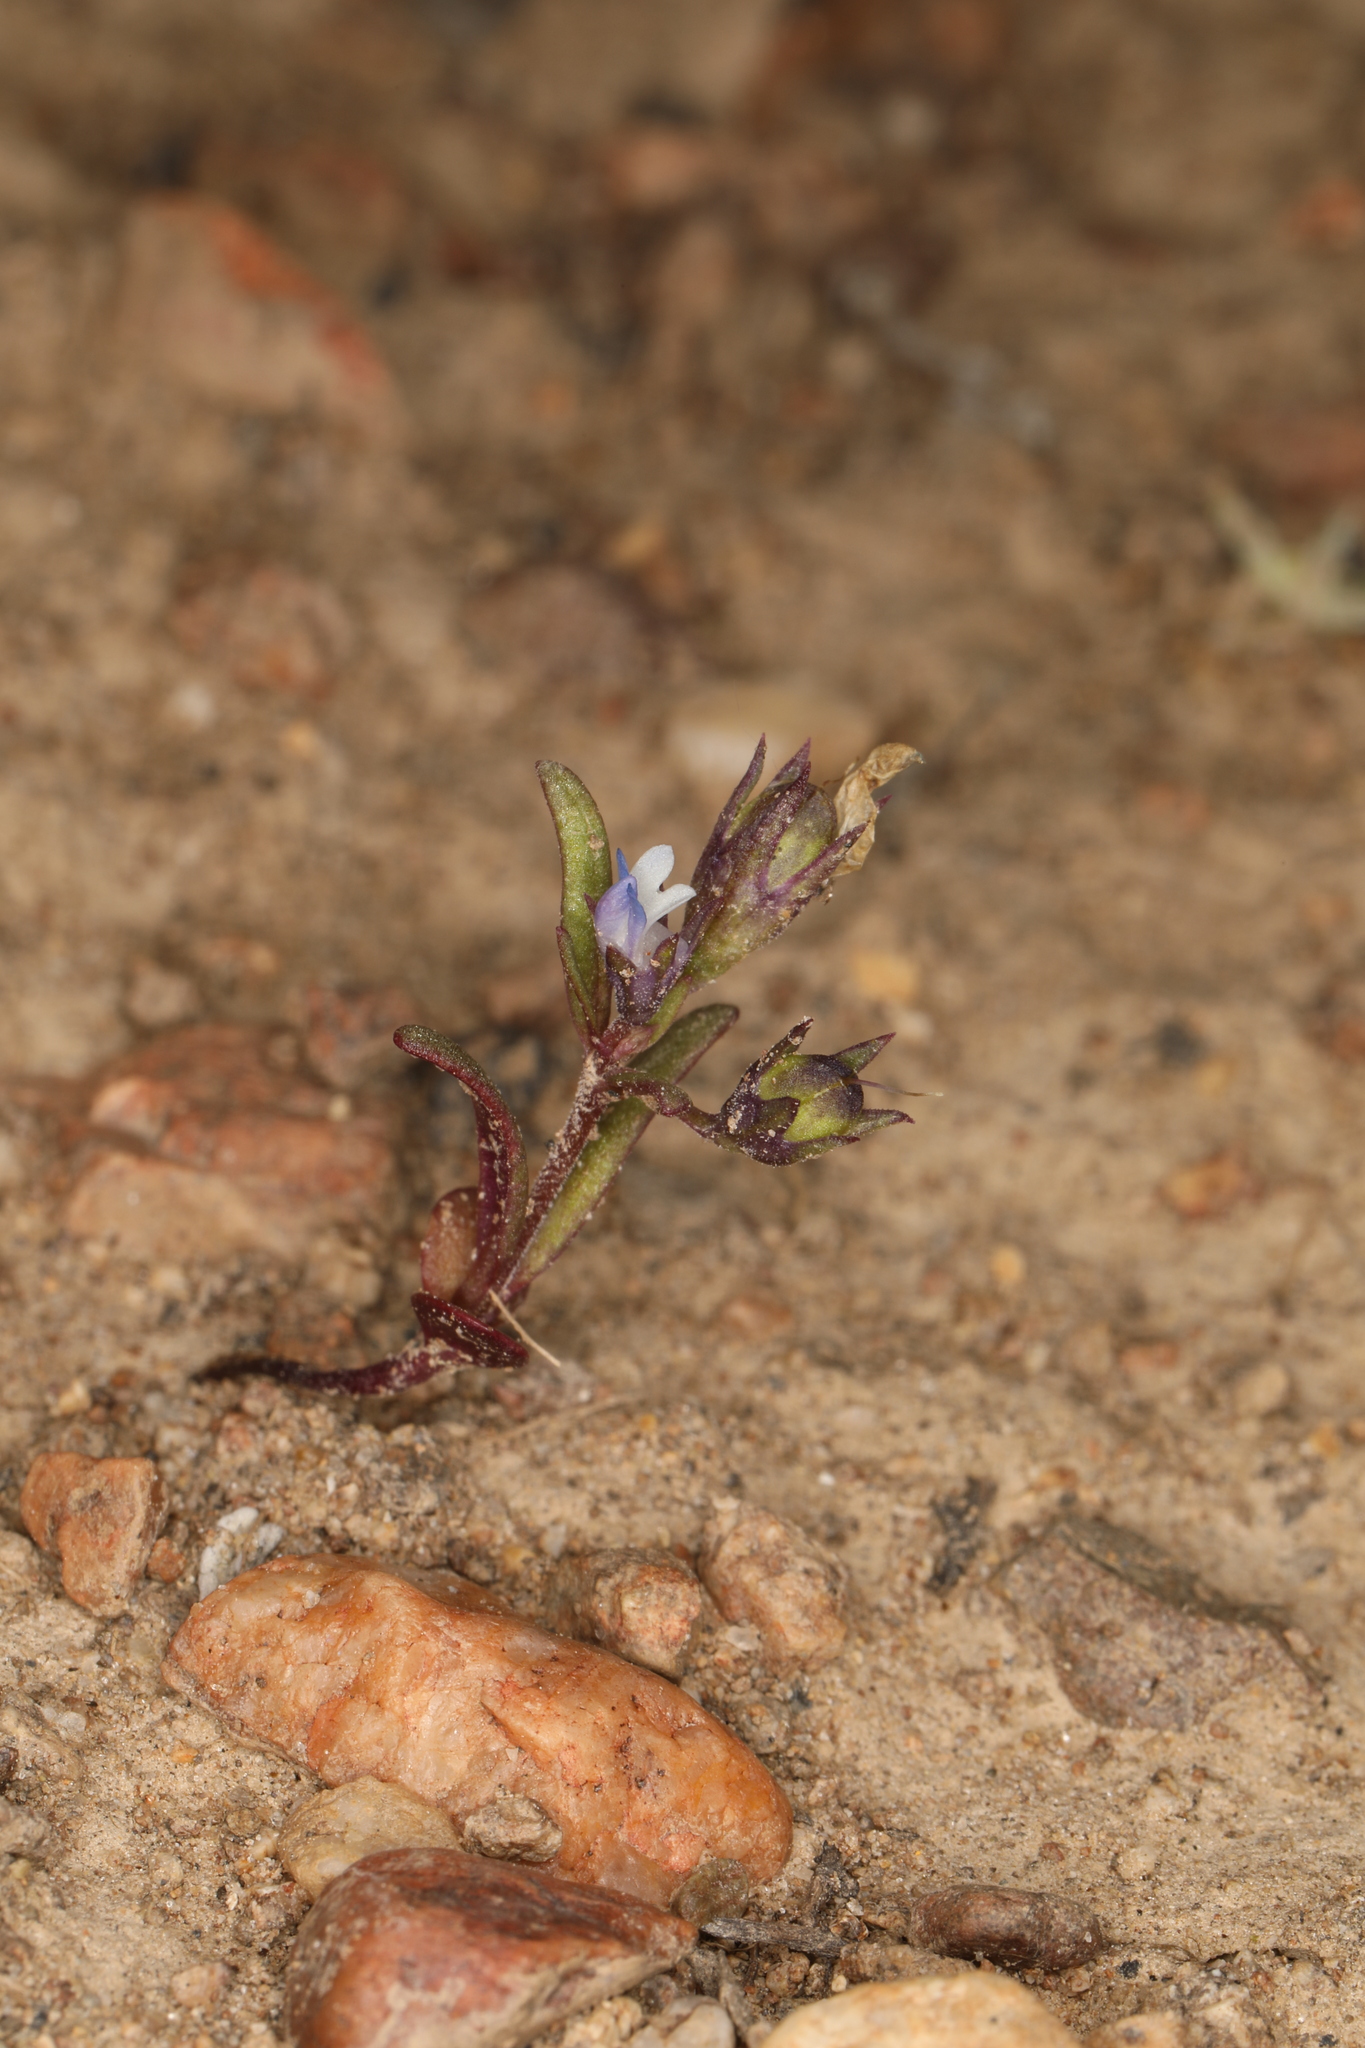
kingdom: Plantae
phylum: Tracheophyta
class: Magnoliopsida
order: Lamiales
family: Plantaginaceae
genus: Collinsia
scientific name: Collinsia parviflora
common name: Blue-lips
